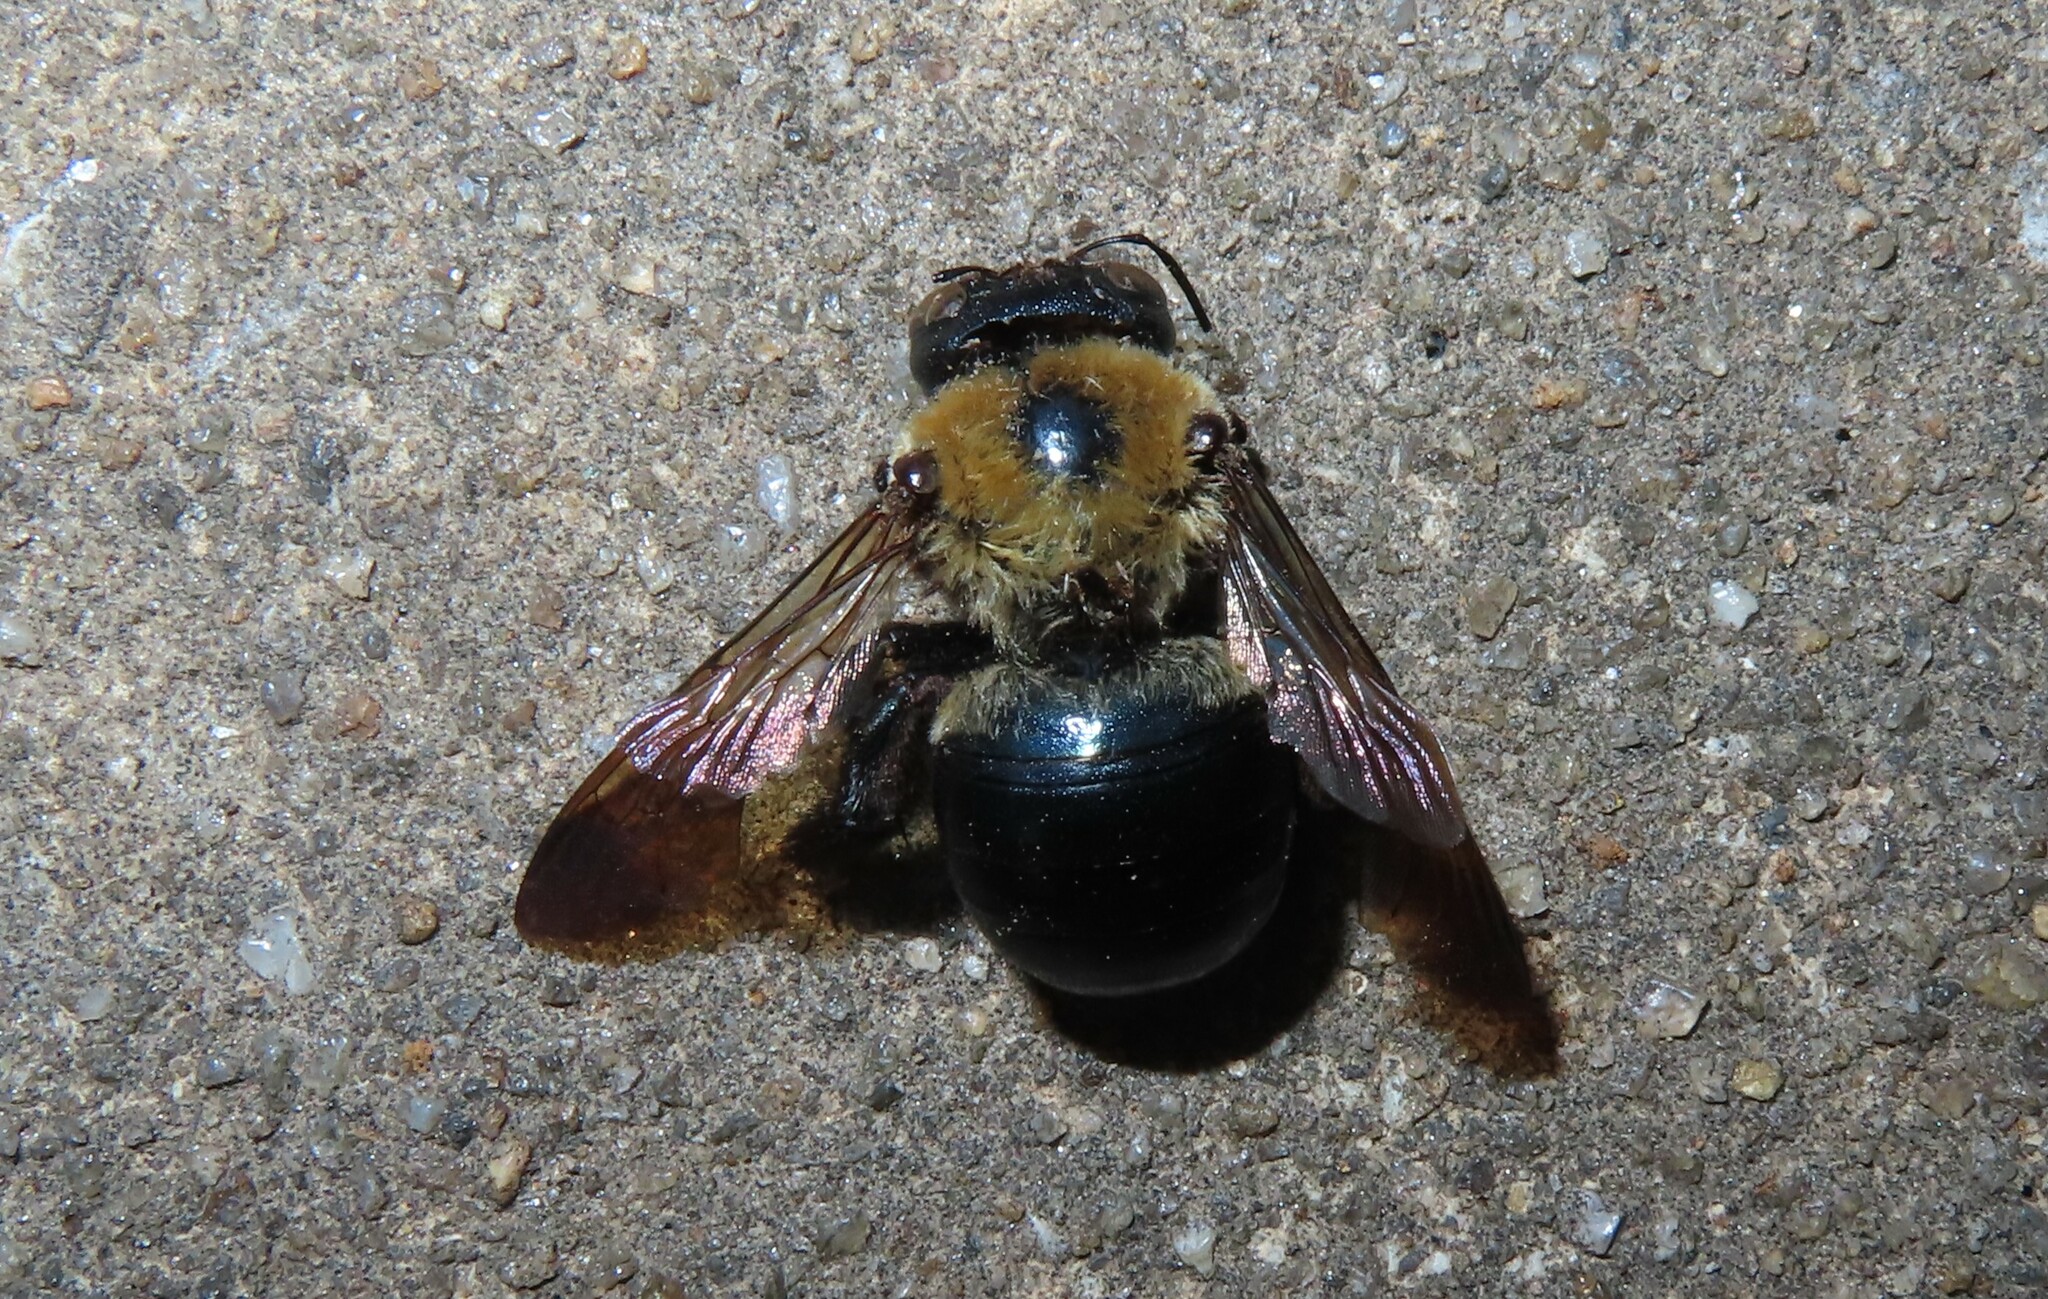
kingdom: Animalia
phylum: Arthropoda
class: Insecta
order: Hymenoptera
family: Apidae
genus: Xylocopa
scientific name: Xylocopa virginica
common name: Carpenter bee
